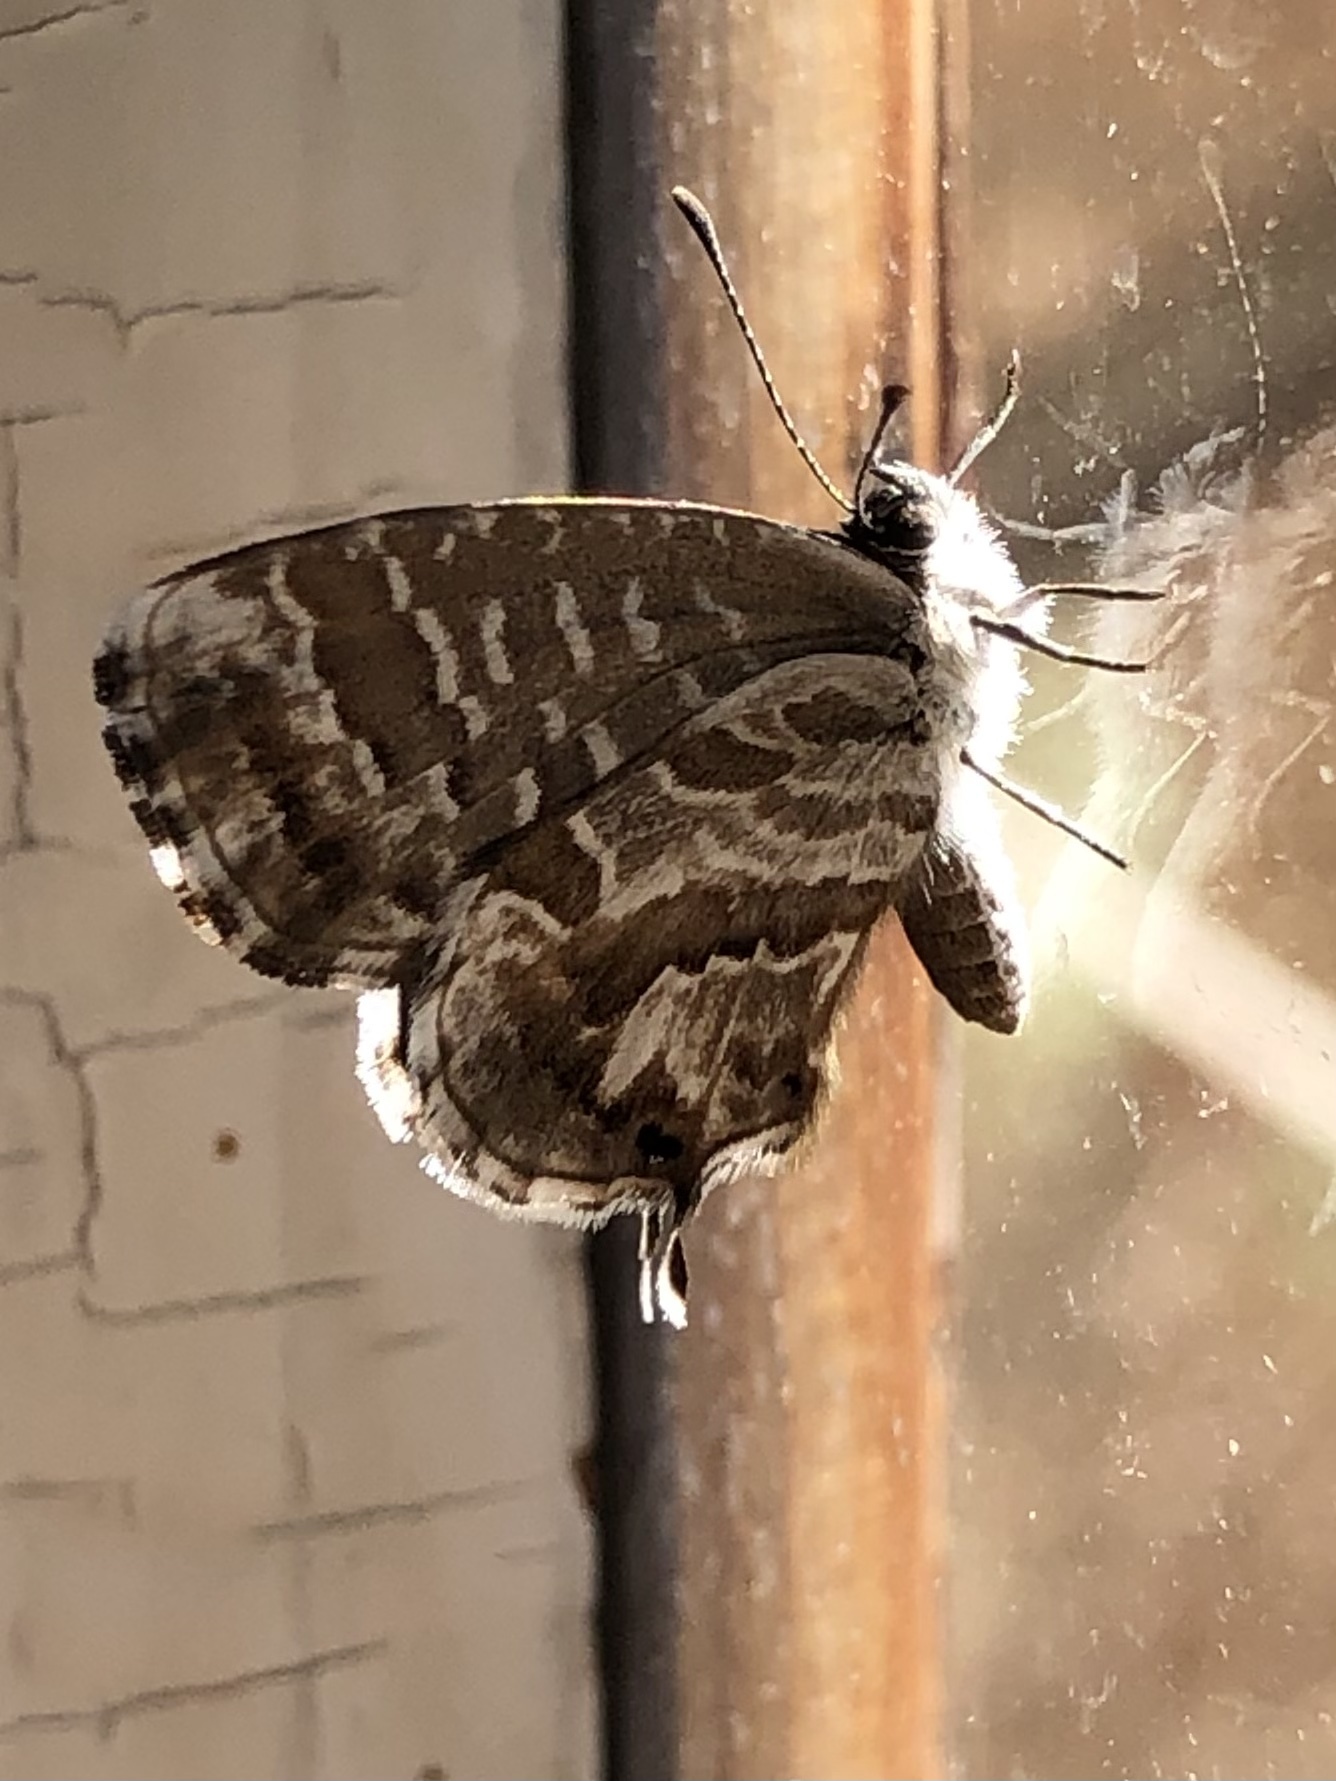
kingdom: Animalia
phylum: Arthropoda
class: Insecta
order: Lepidoptera
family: Lycaenidae
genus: Cacyreus
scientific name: Cacyreus marshalli
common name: Geranium bronze
